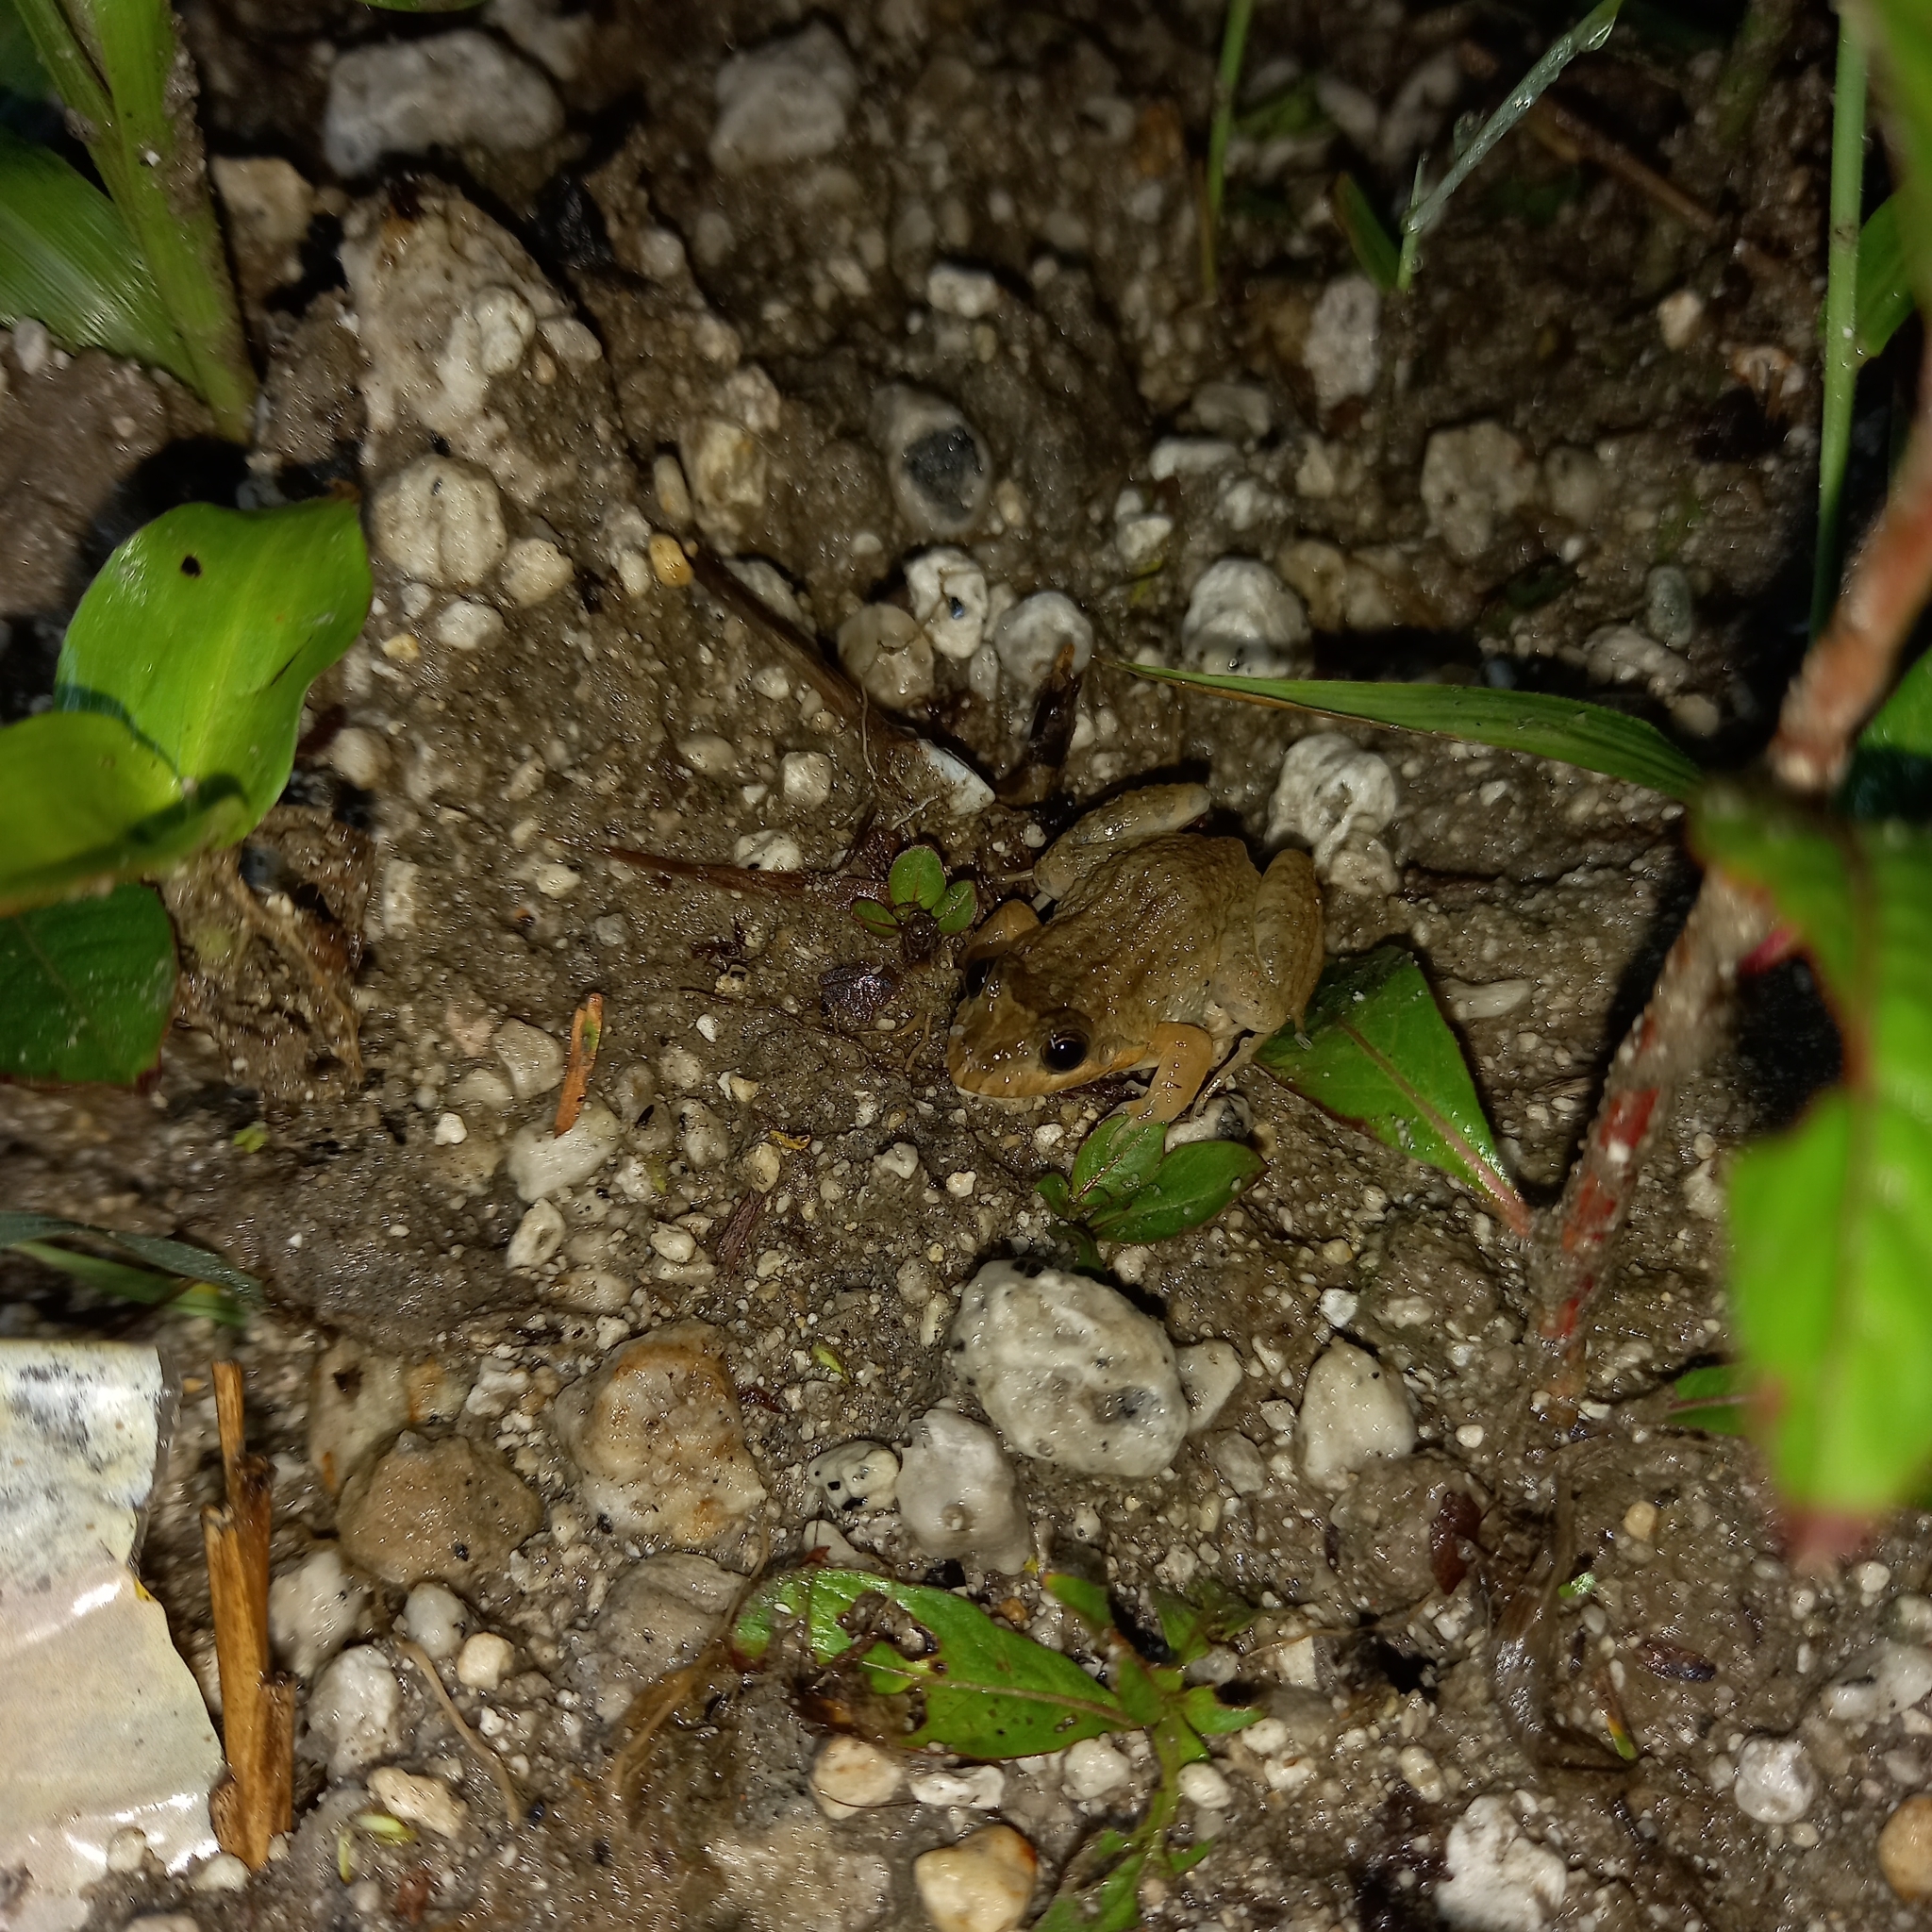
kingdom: Animalia
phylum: Chordata
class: Amphibia
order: Anura
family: Leptodactylidae
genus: Leptodactylus
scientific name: Leptodactylus melanonotus
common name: Fringe-toed foamfrog
